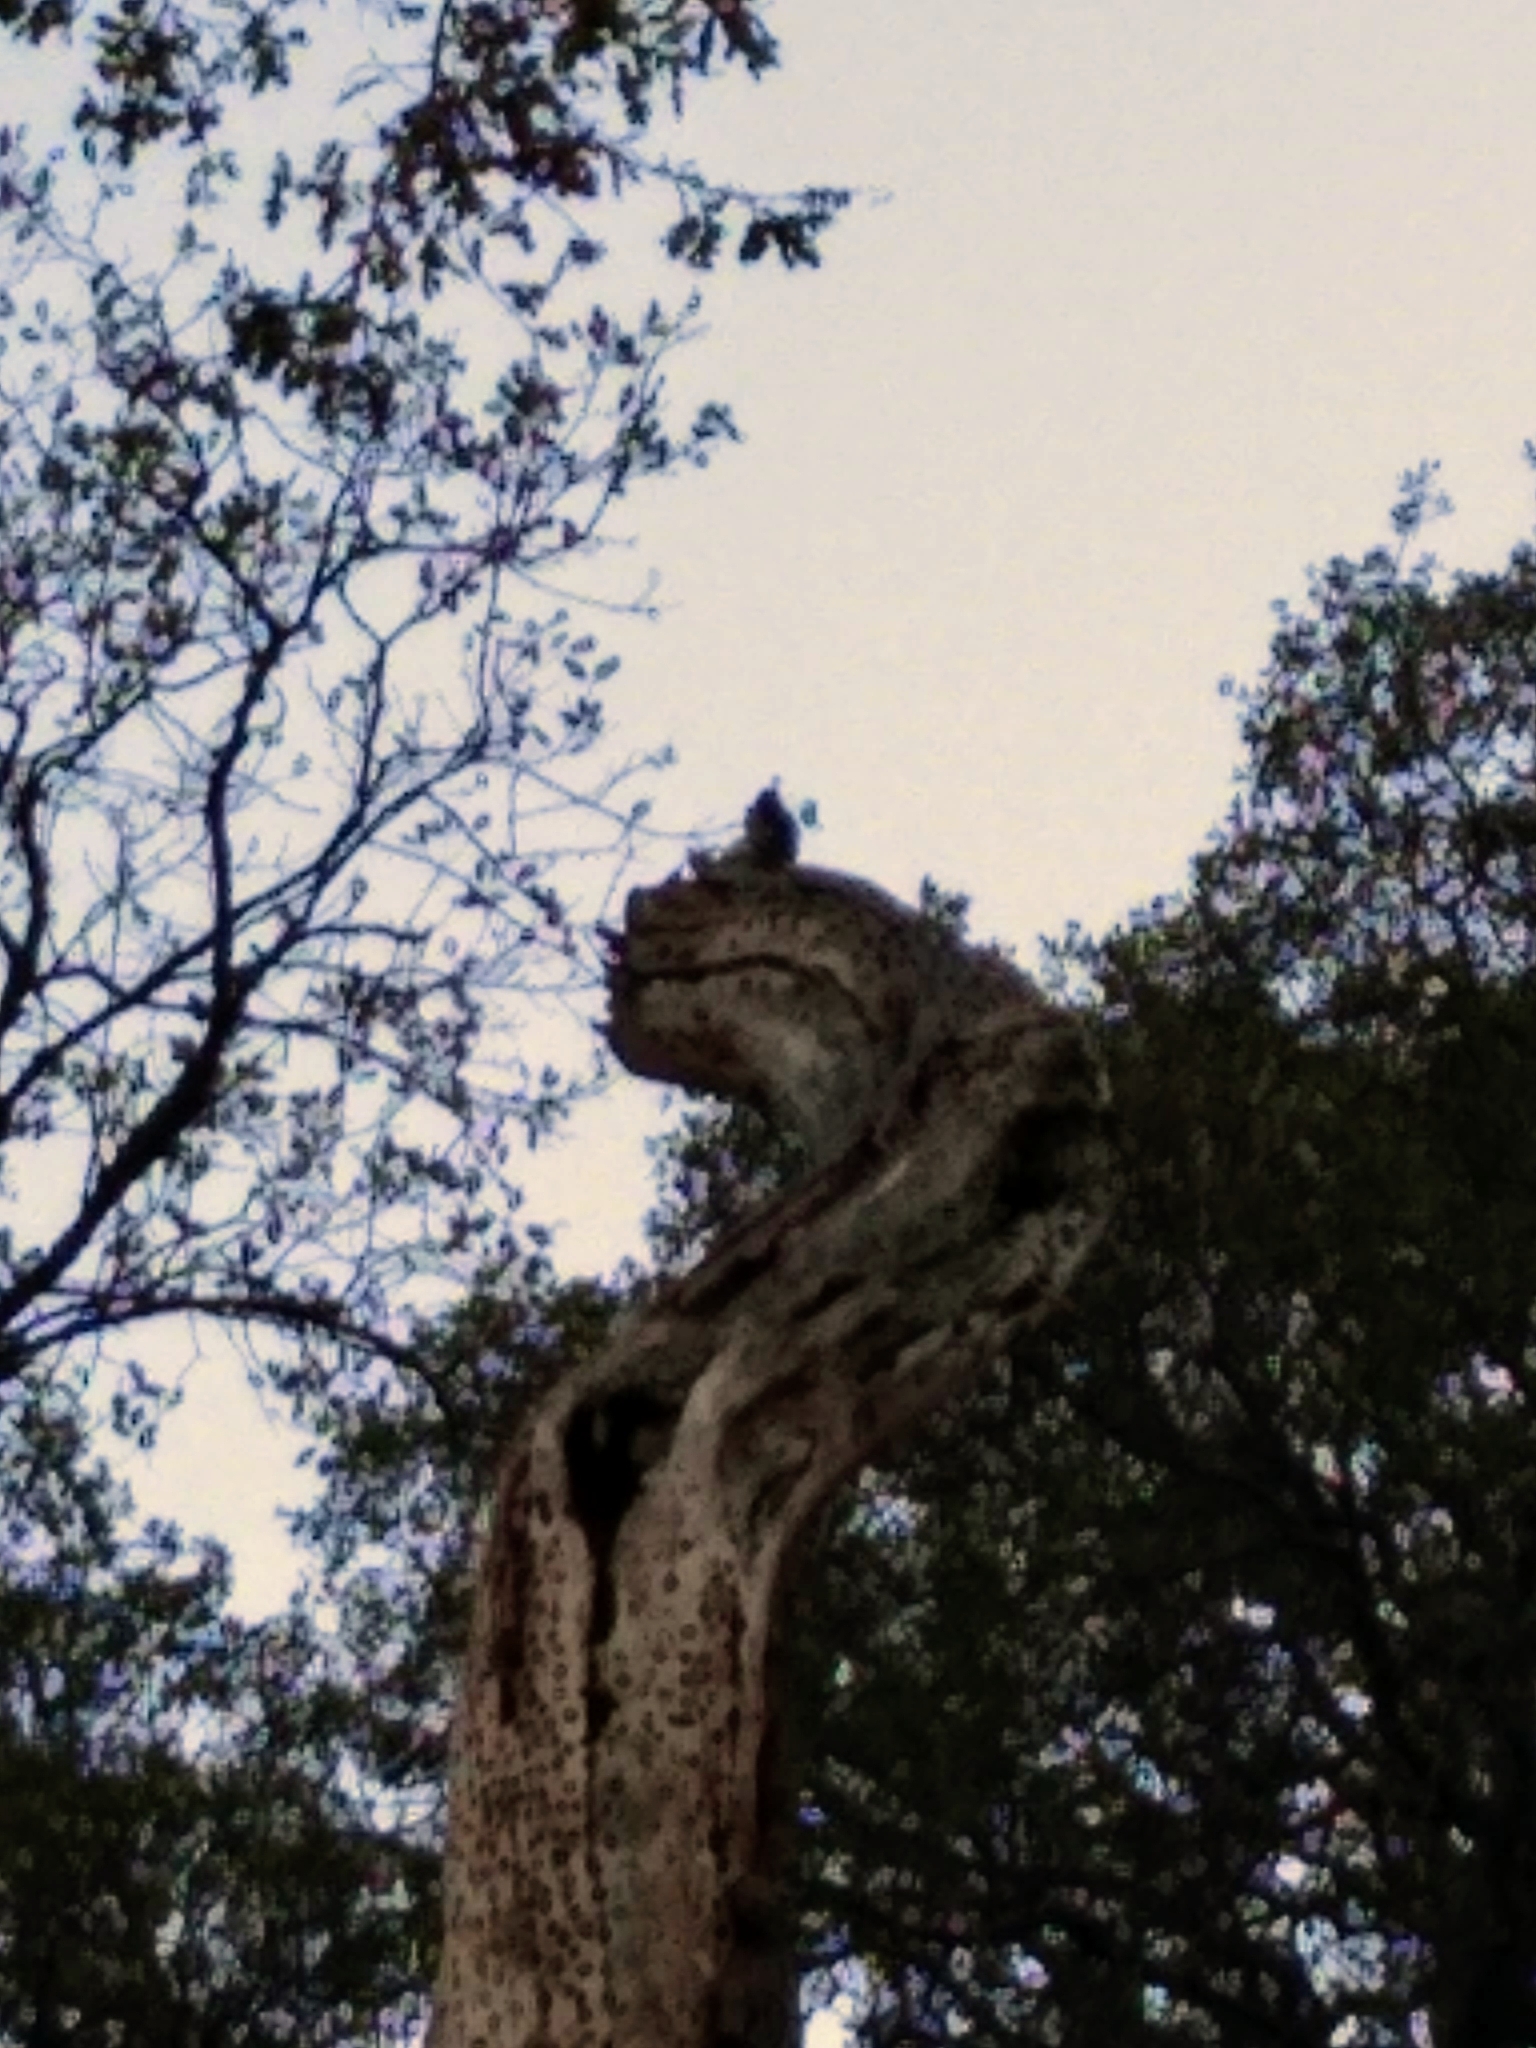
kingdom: Animalia
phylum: Chordata
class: Aves
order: Piciformes
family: Picidae
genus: Melanerpes
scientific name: Melanerpes formicivorus
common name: Acorn woodpecker
